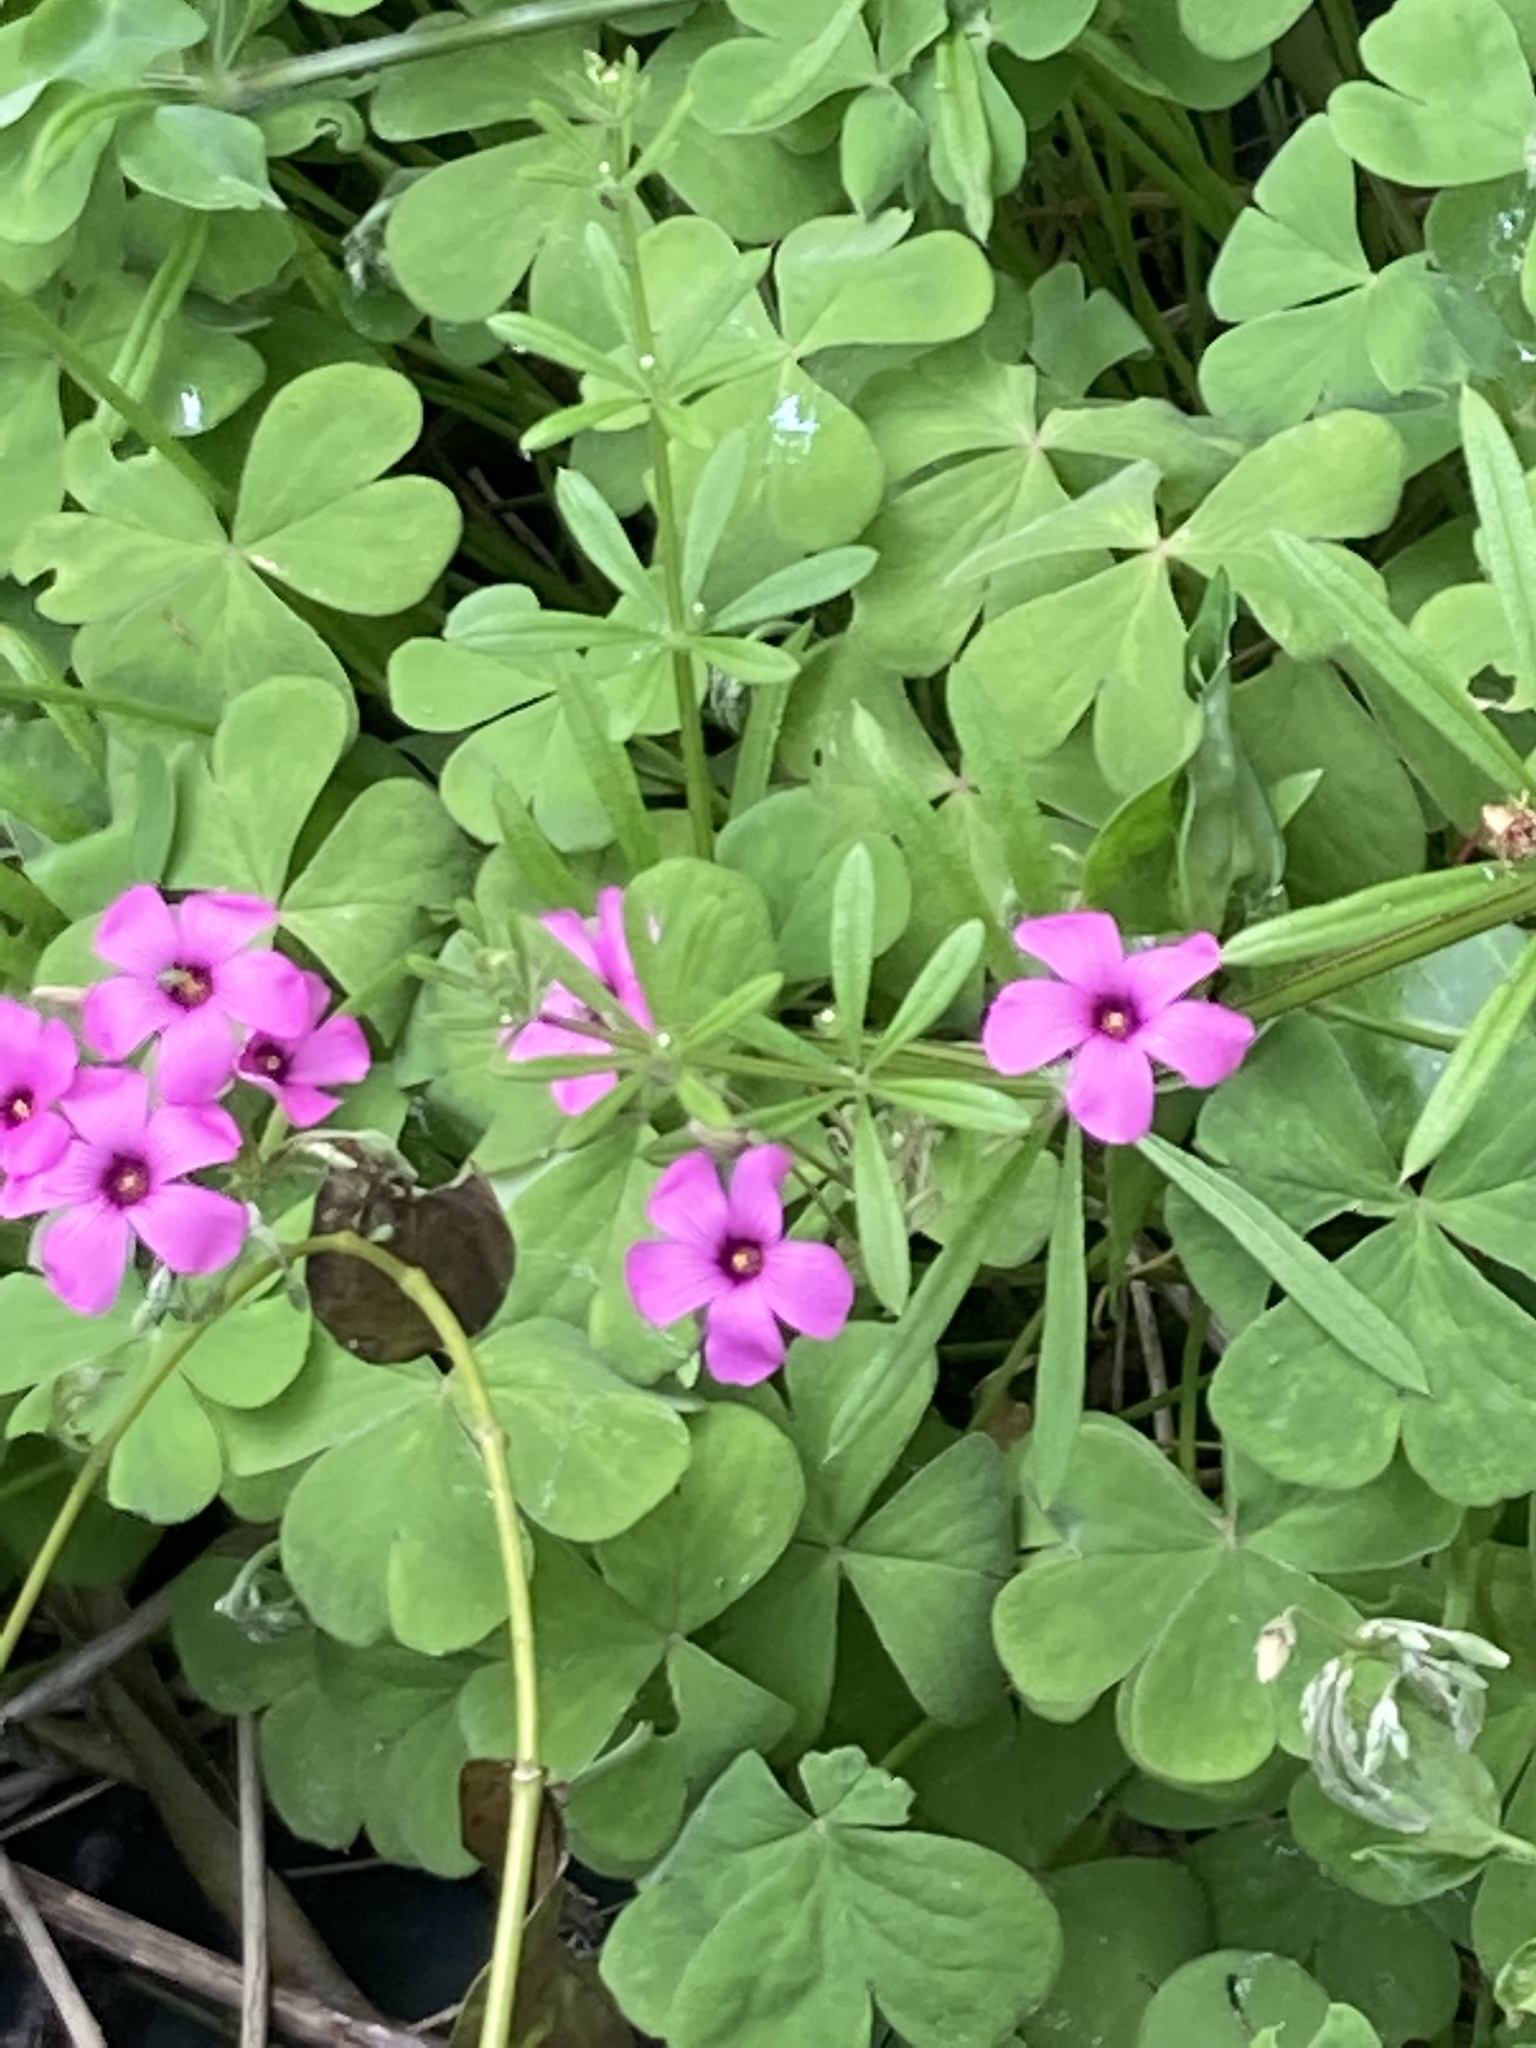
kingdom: Plantae
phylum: Tracheophyta
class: Magnoliopsida
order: Oxalidales
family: Oxalidaceae
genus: Oxalis
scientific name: Oxalis articulata
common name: Pink-sorrel
